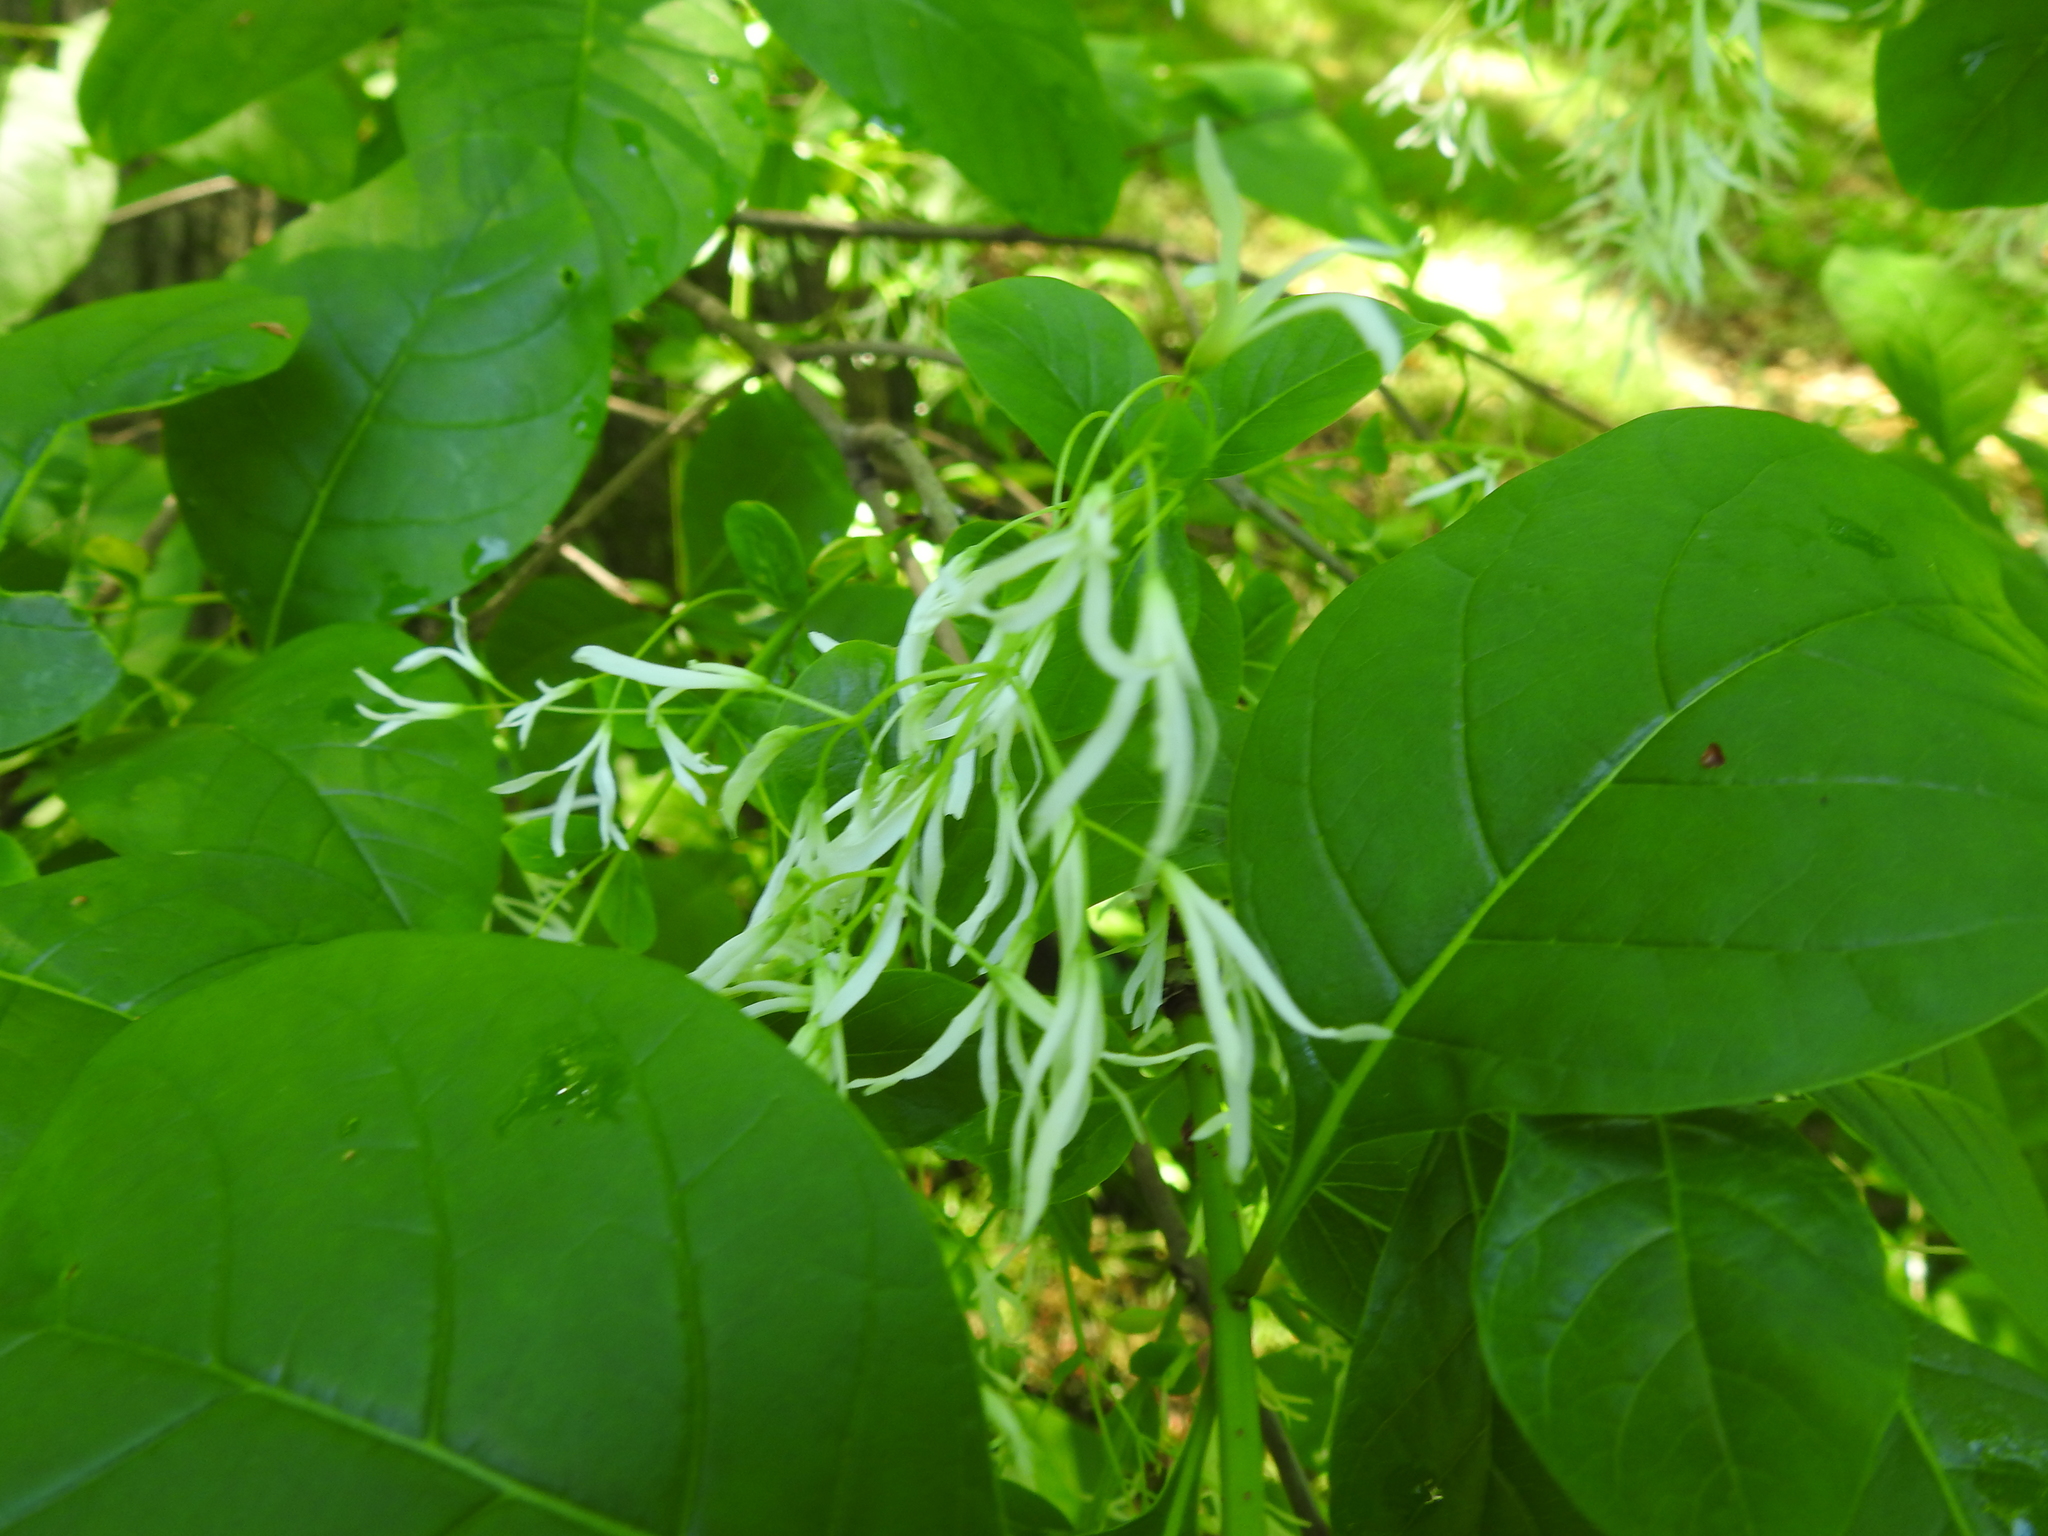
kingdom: Plantae
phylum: Tracheophyta
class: Magnoliopsida
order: Lamiales
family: Oleaceae
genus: Chionanthus
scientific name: Chionanthus virginicus
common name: American fringetree
